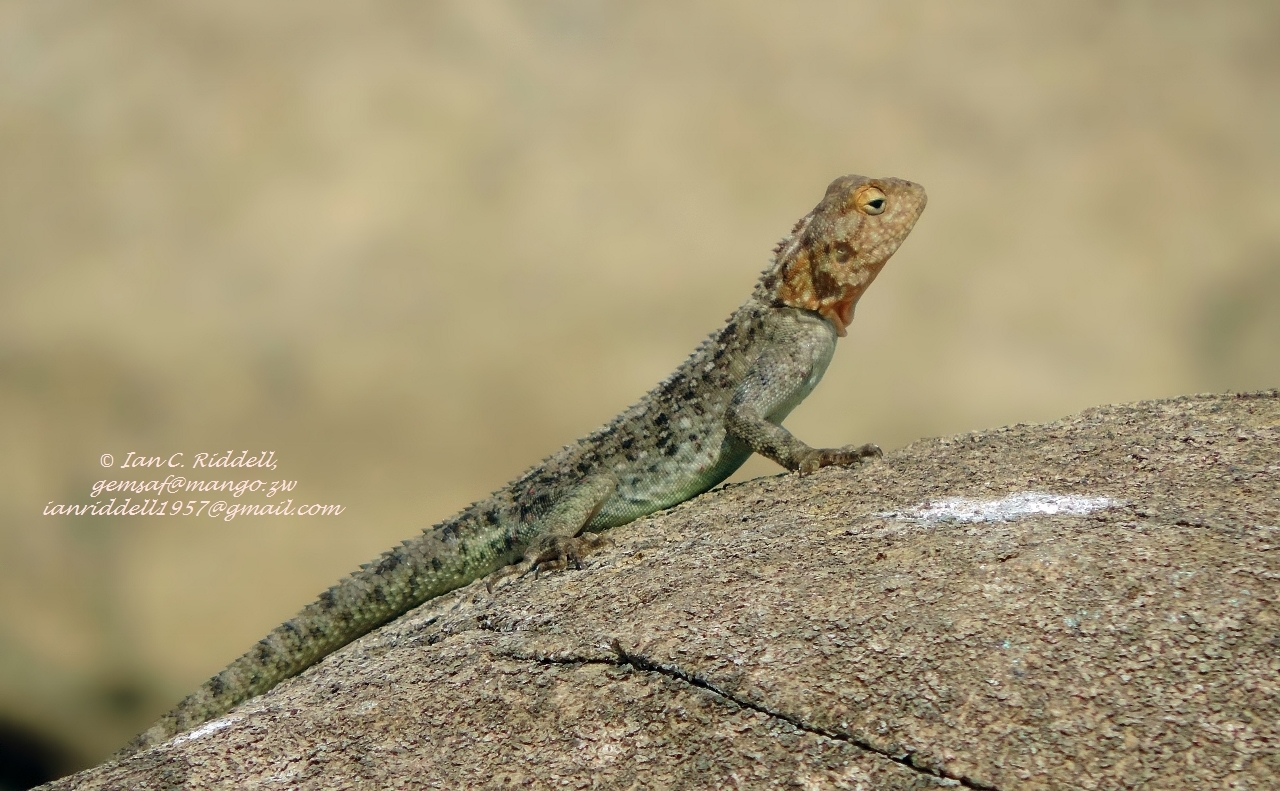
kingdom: Animalia
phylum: Chordata
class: Squamata
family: Agamidae
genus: Agama
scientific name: Agama kirkii
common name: Kirk's rock agama
